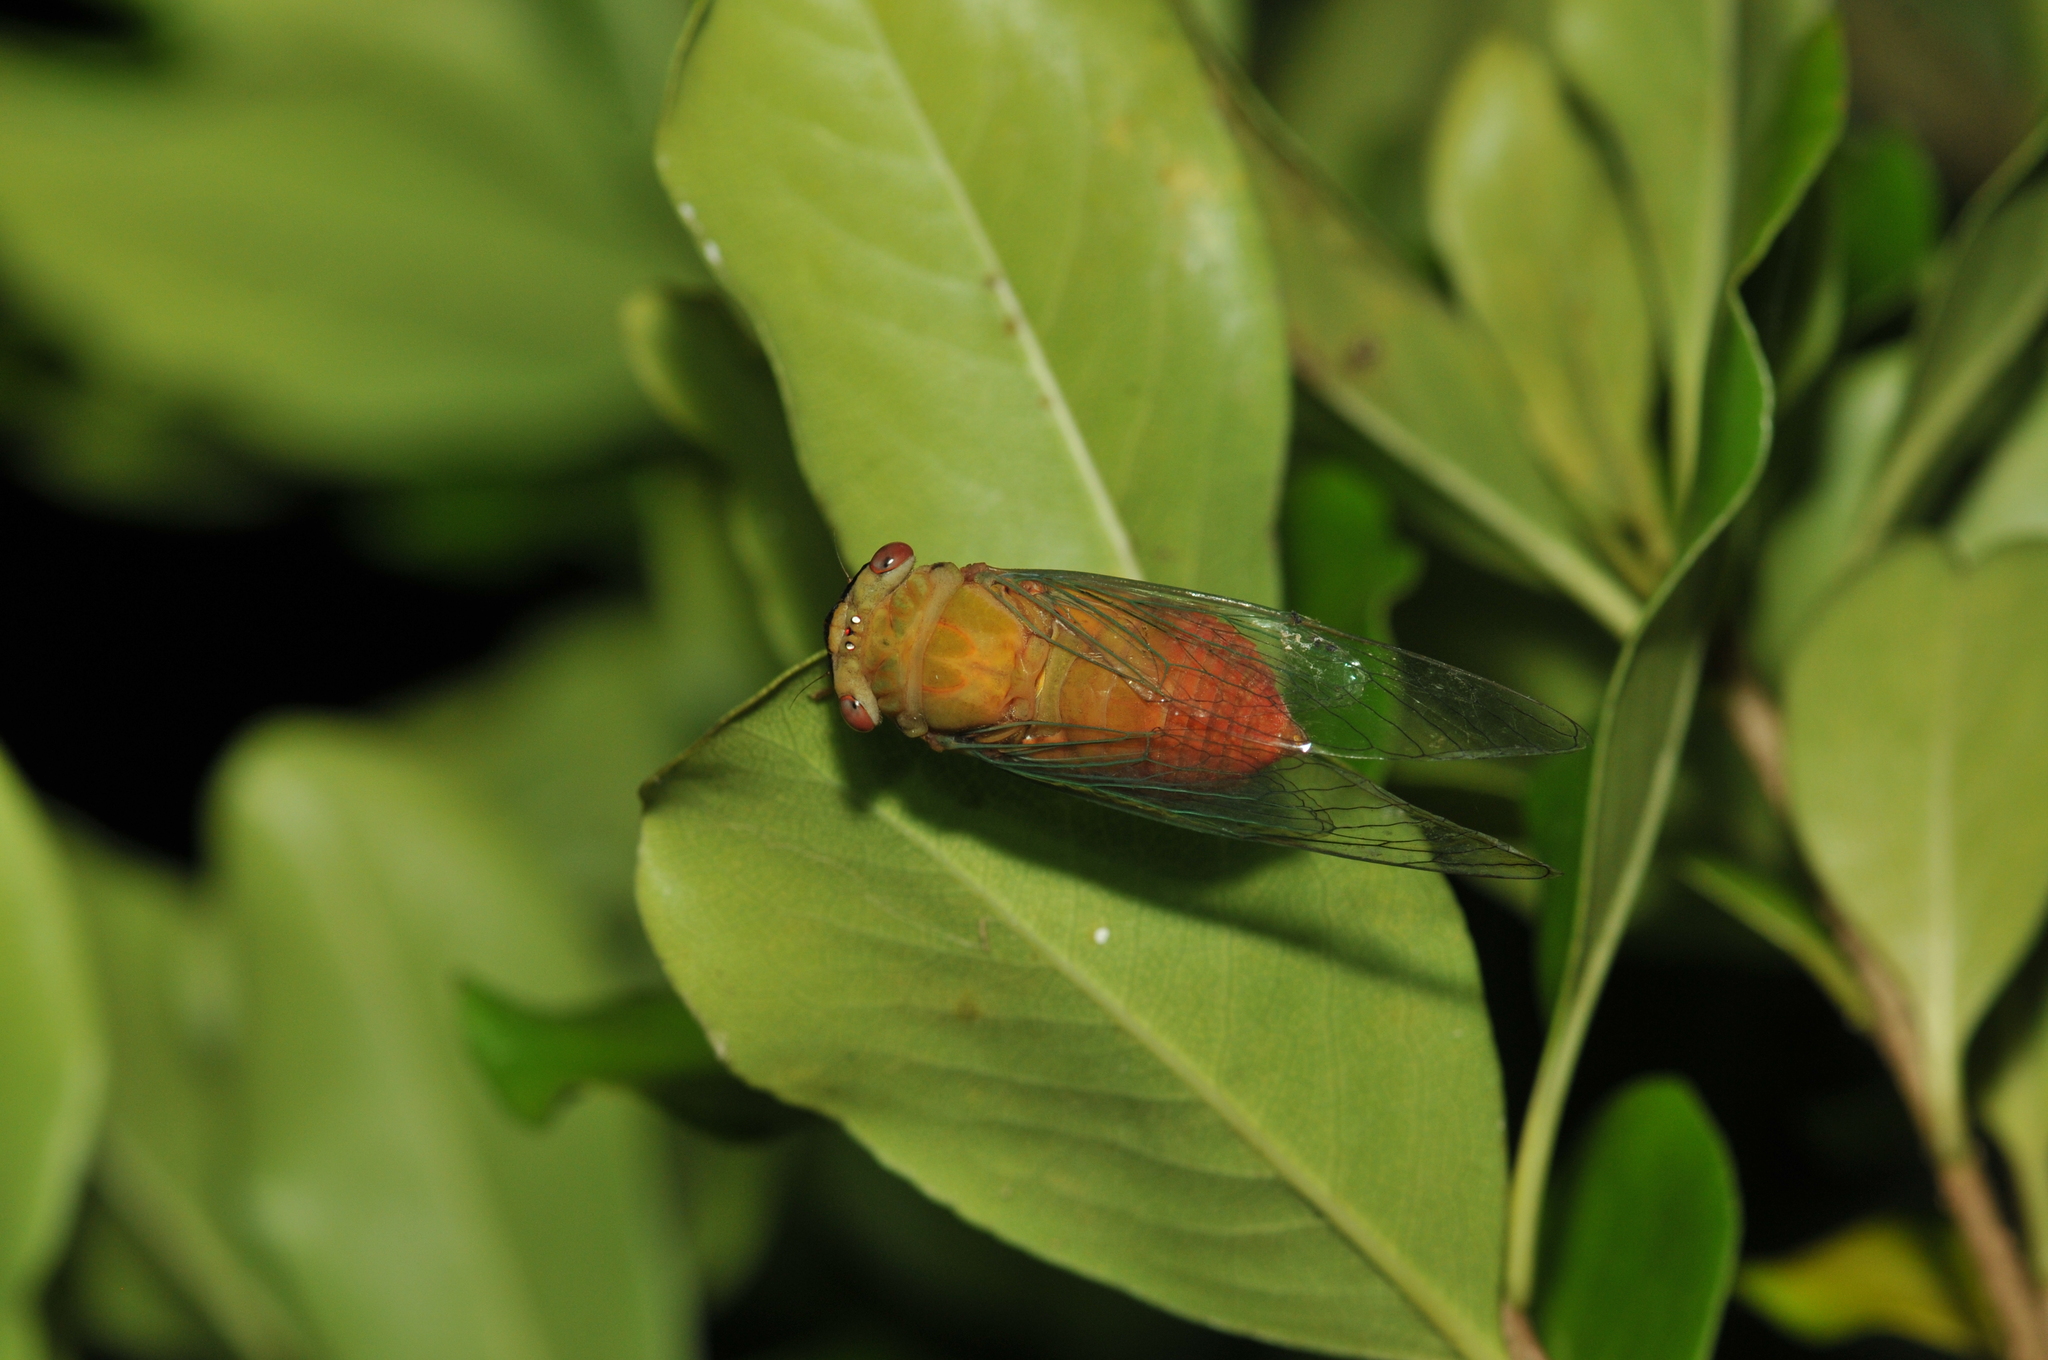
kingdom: Animalia
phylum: Arthropoda
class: Insecta
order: Hemiptera
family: Cicadidae
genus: Chremistica
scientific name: Chremistica ochracea
